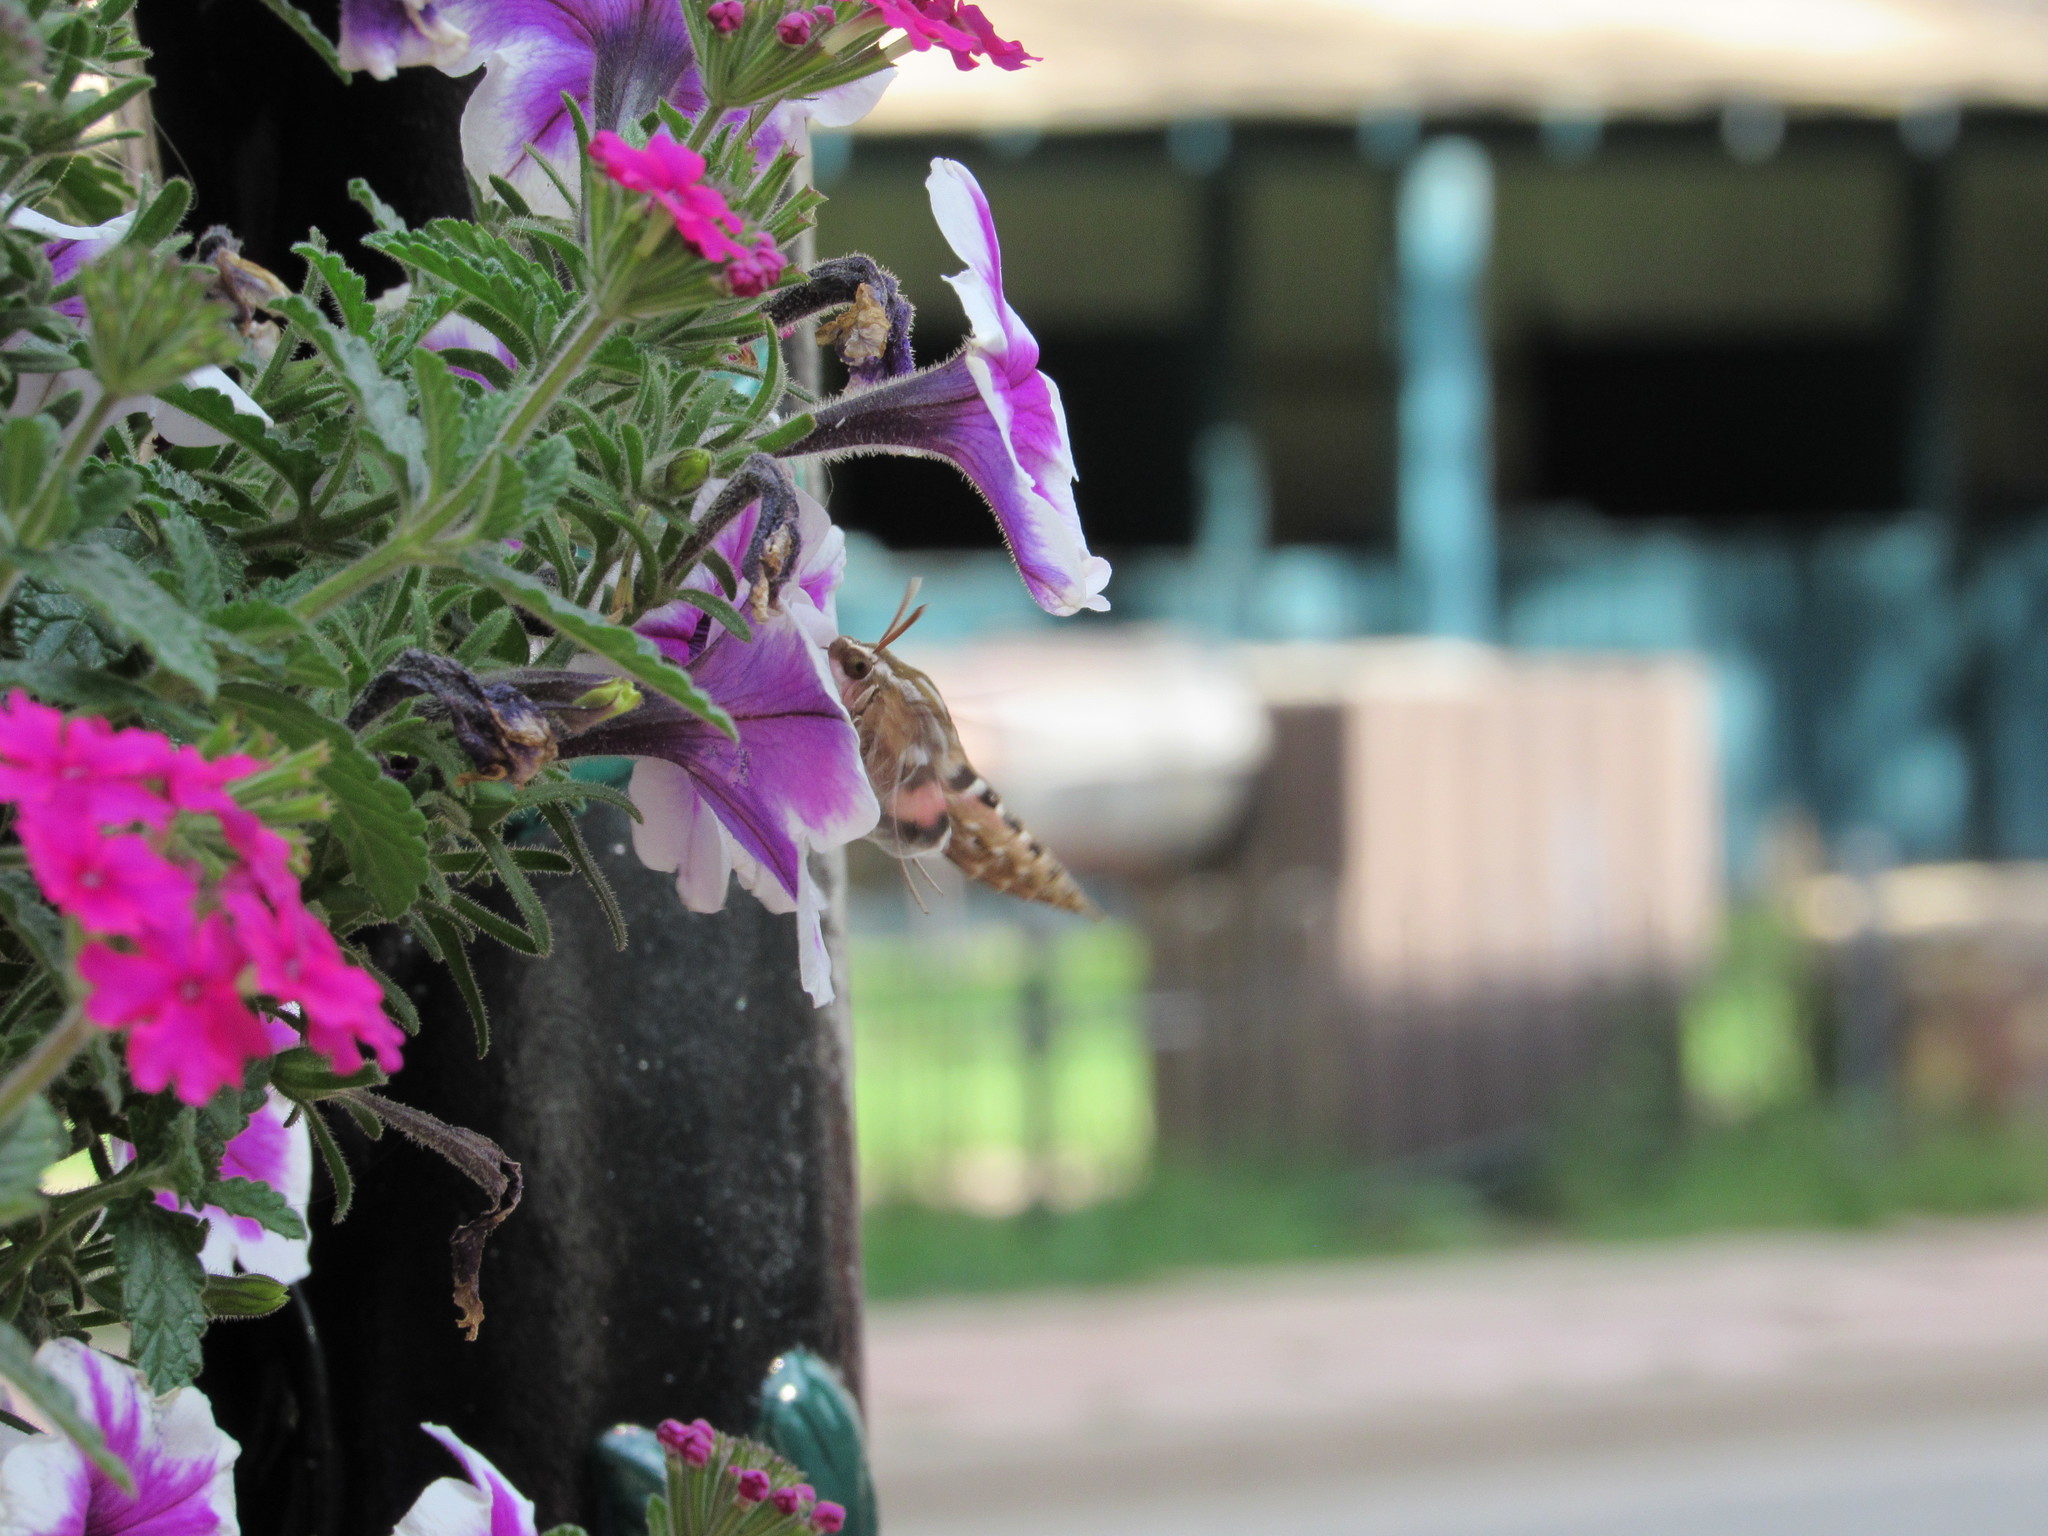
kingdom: Animalia
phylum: Arthropoda
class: Insecta
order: Lepidoptera
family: Sphingidae
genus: Hyles
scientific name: Hyles lineata
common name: White-lined sphinx
